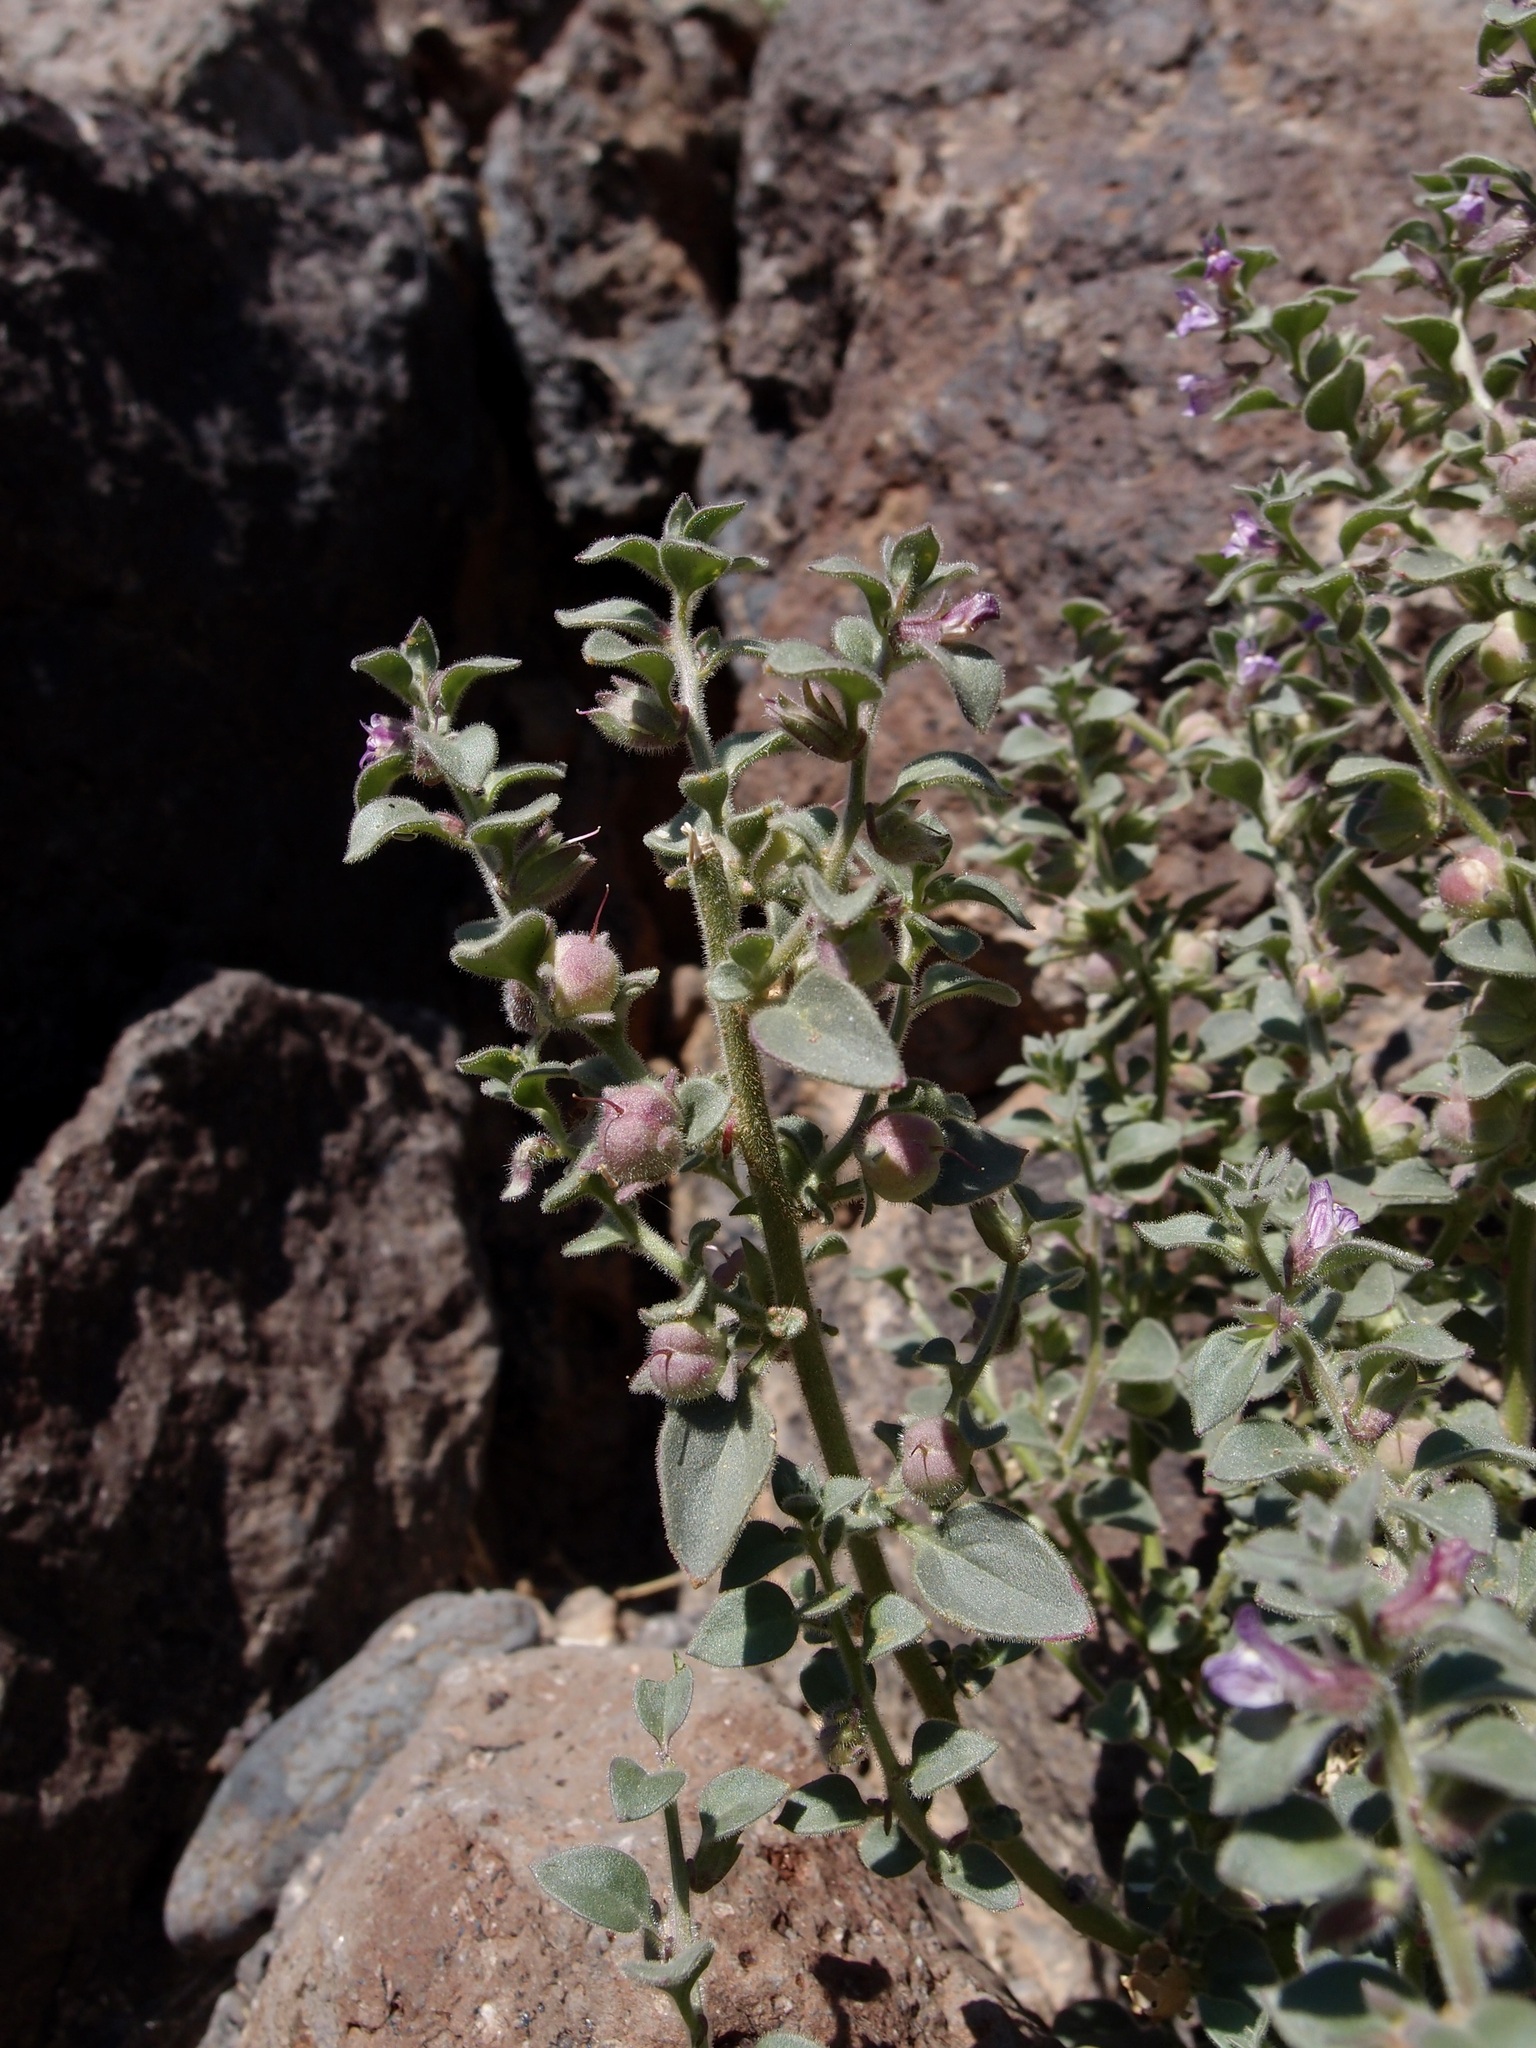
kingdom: Plantae
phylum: Tracheophyta
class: Magnoliopsida
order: Lamiales
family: Plantaginaceae
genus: Pseudorontium
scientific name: Pseudorontium cyathiferum
